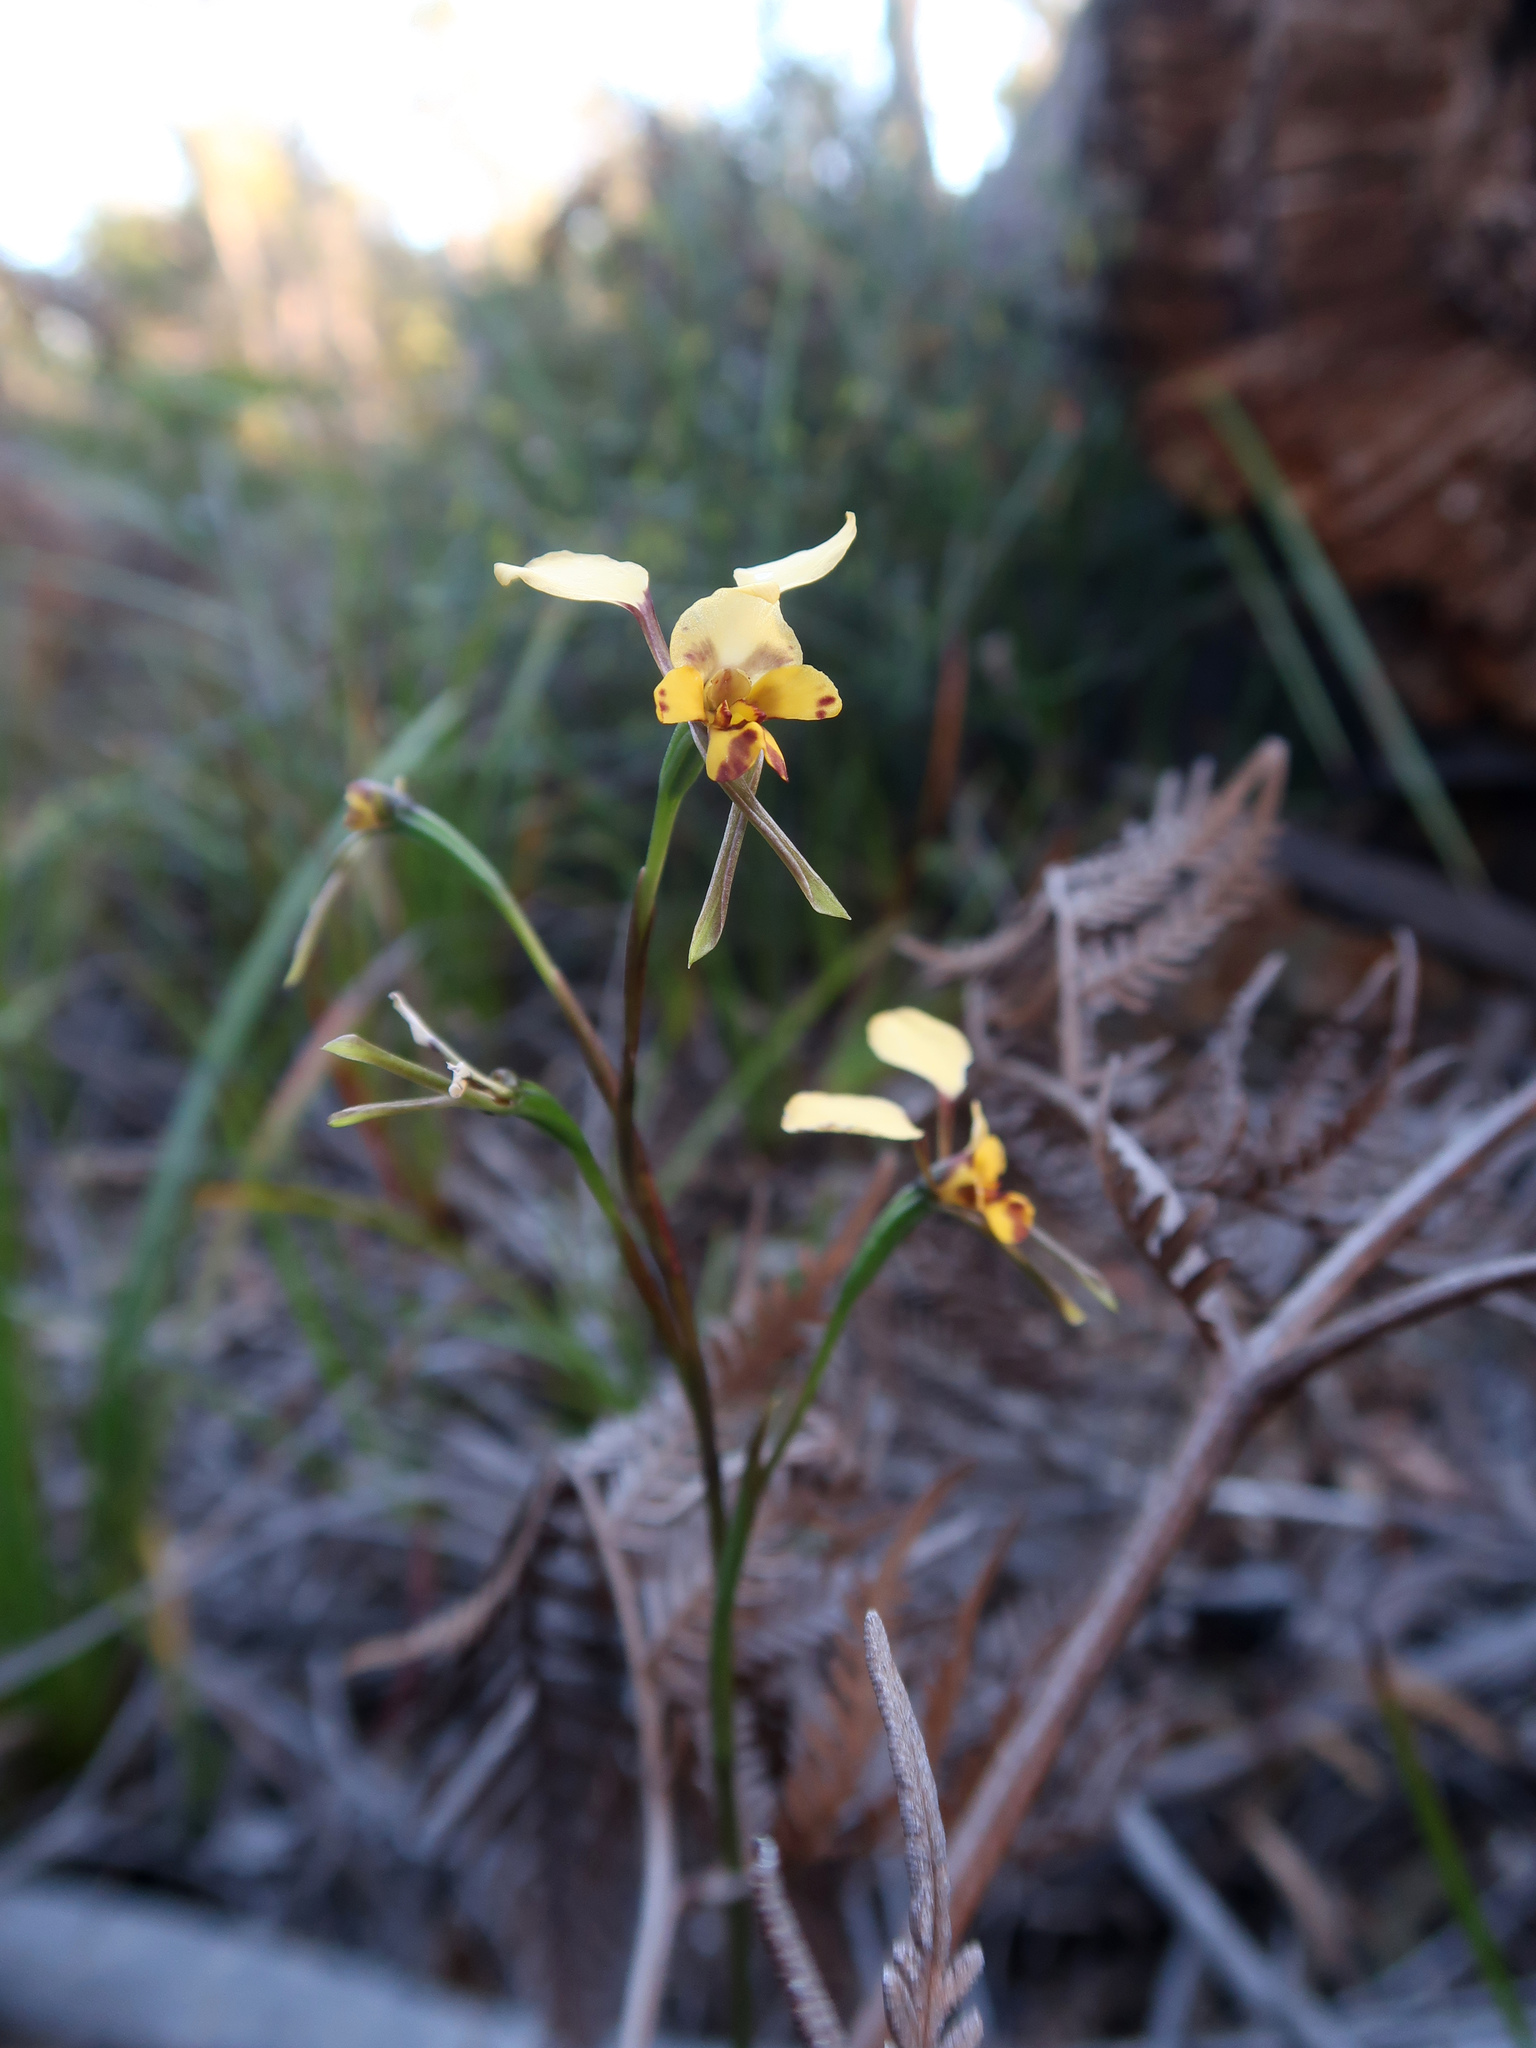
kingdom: Plantae
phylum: Tracheophyta
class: Liliopsida
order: Asparagales
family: Orchidaceae
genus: Diuris
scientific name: Diuris pardina
